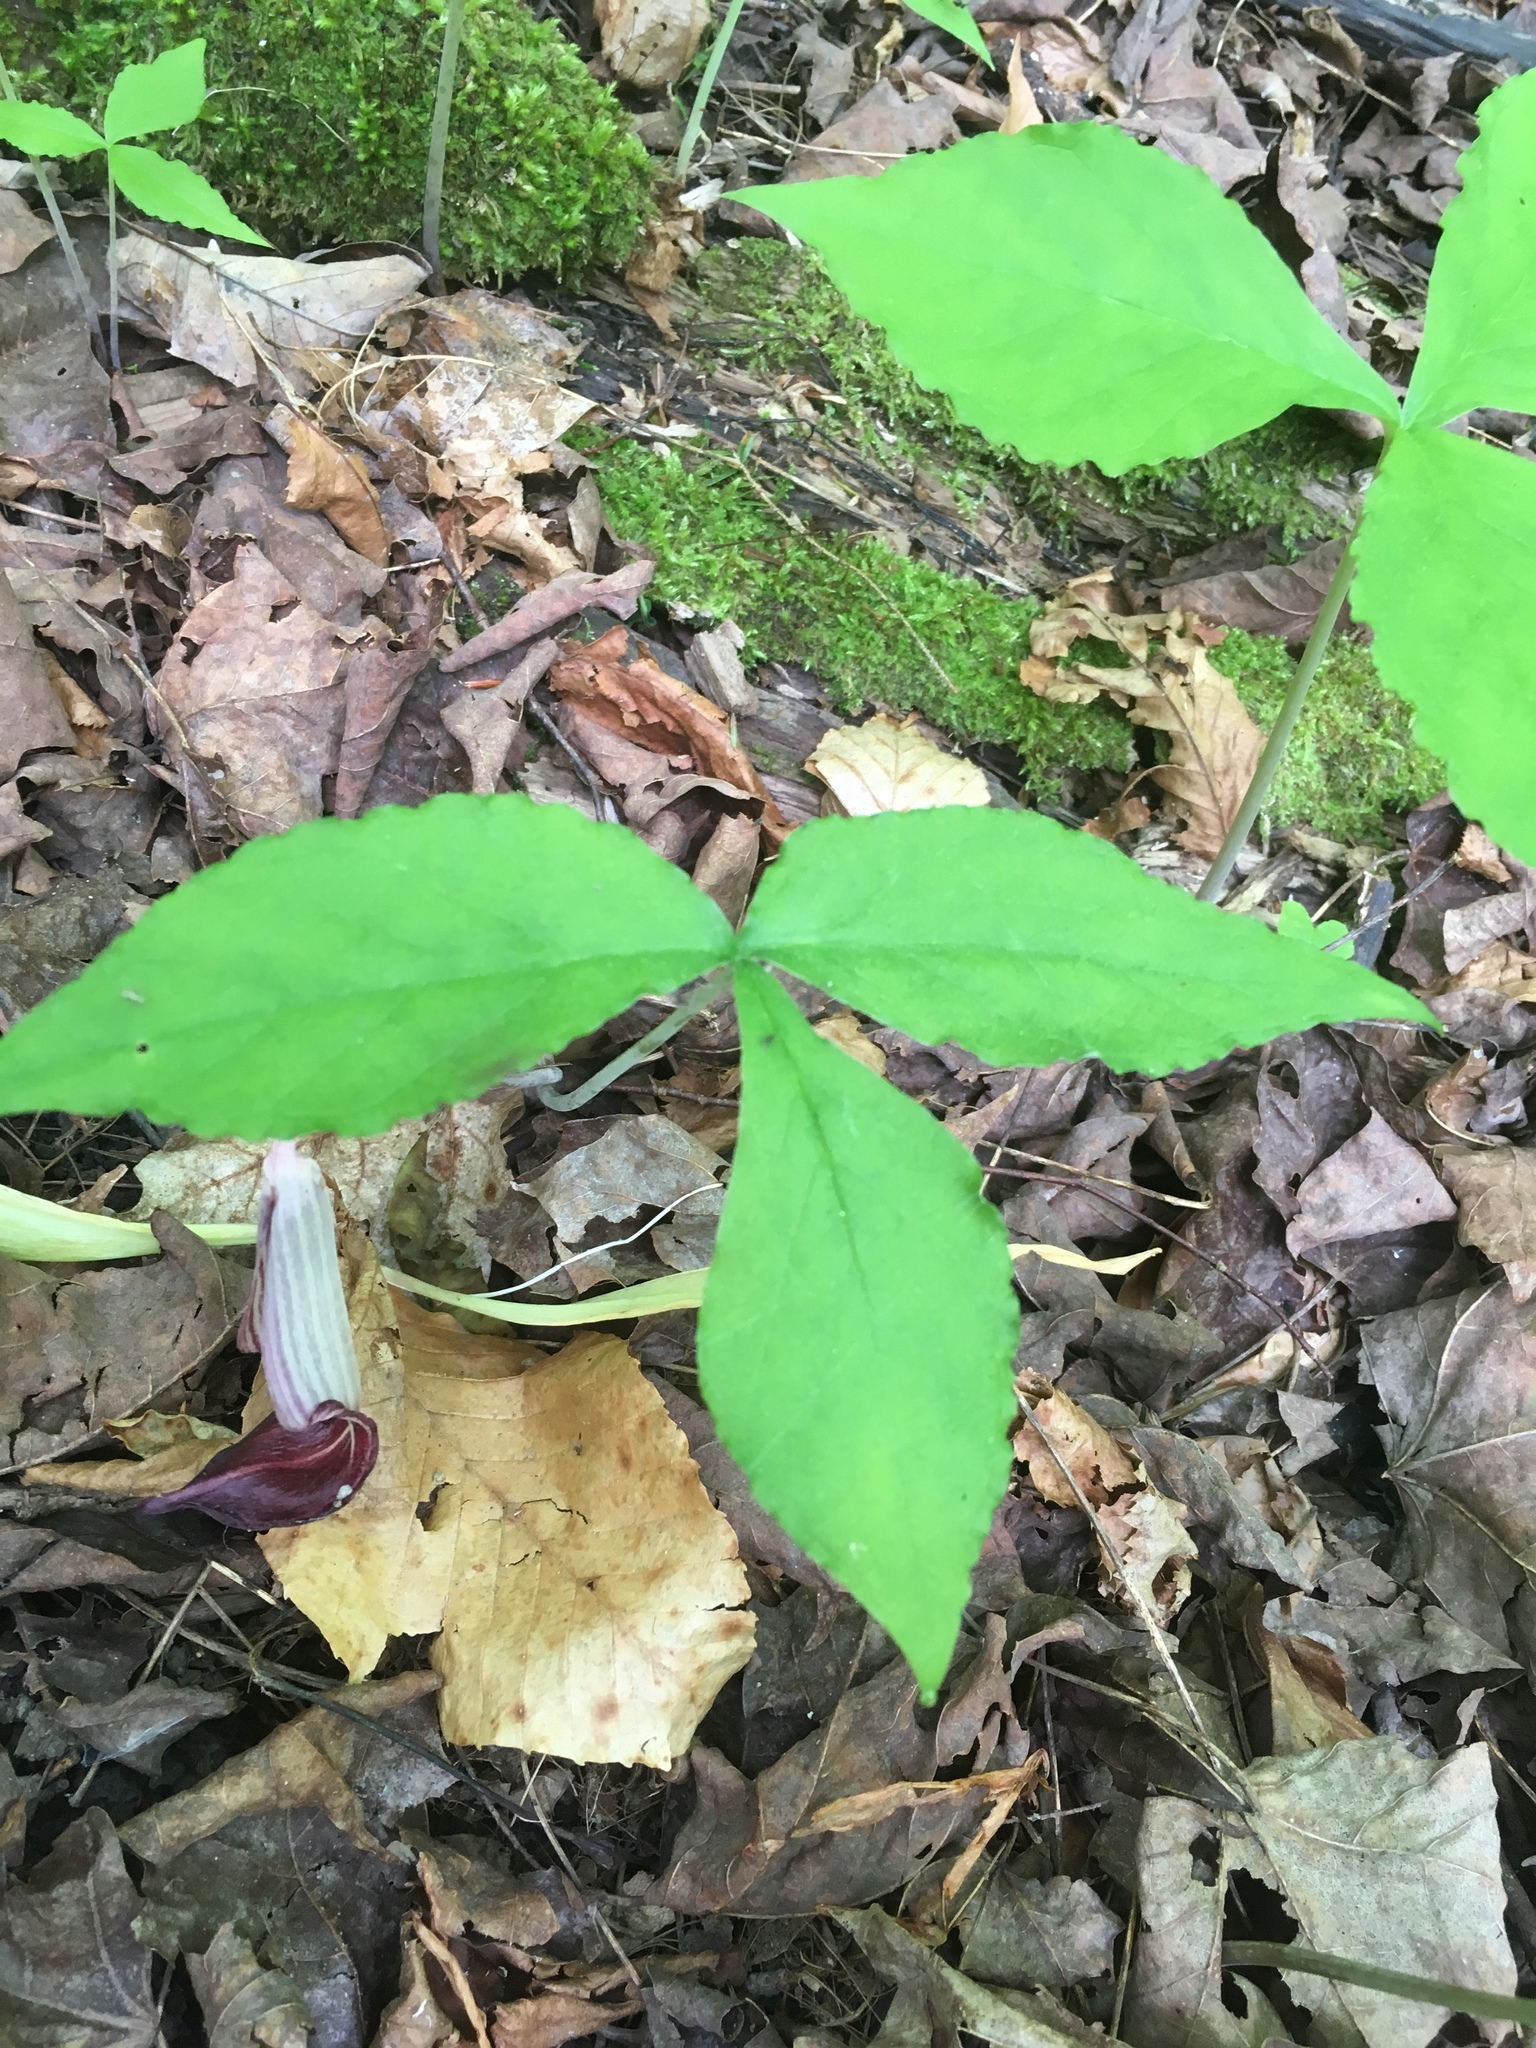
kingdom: Plantae
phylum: Tracheophyta
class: Liliopsida
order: Alismatales
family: Araceae
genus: Arisaema
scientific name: Arisaema triphyllum
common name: Jack-in-the-pulpit
